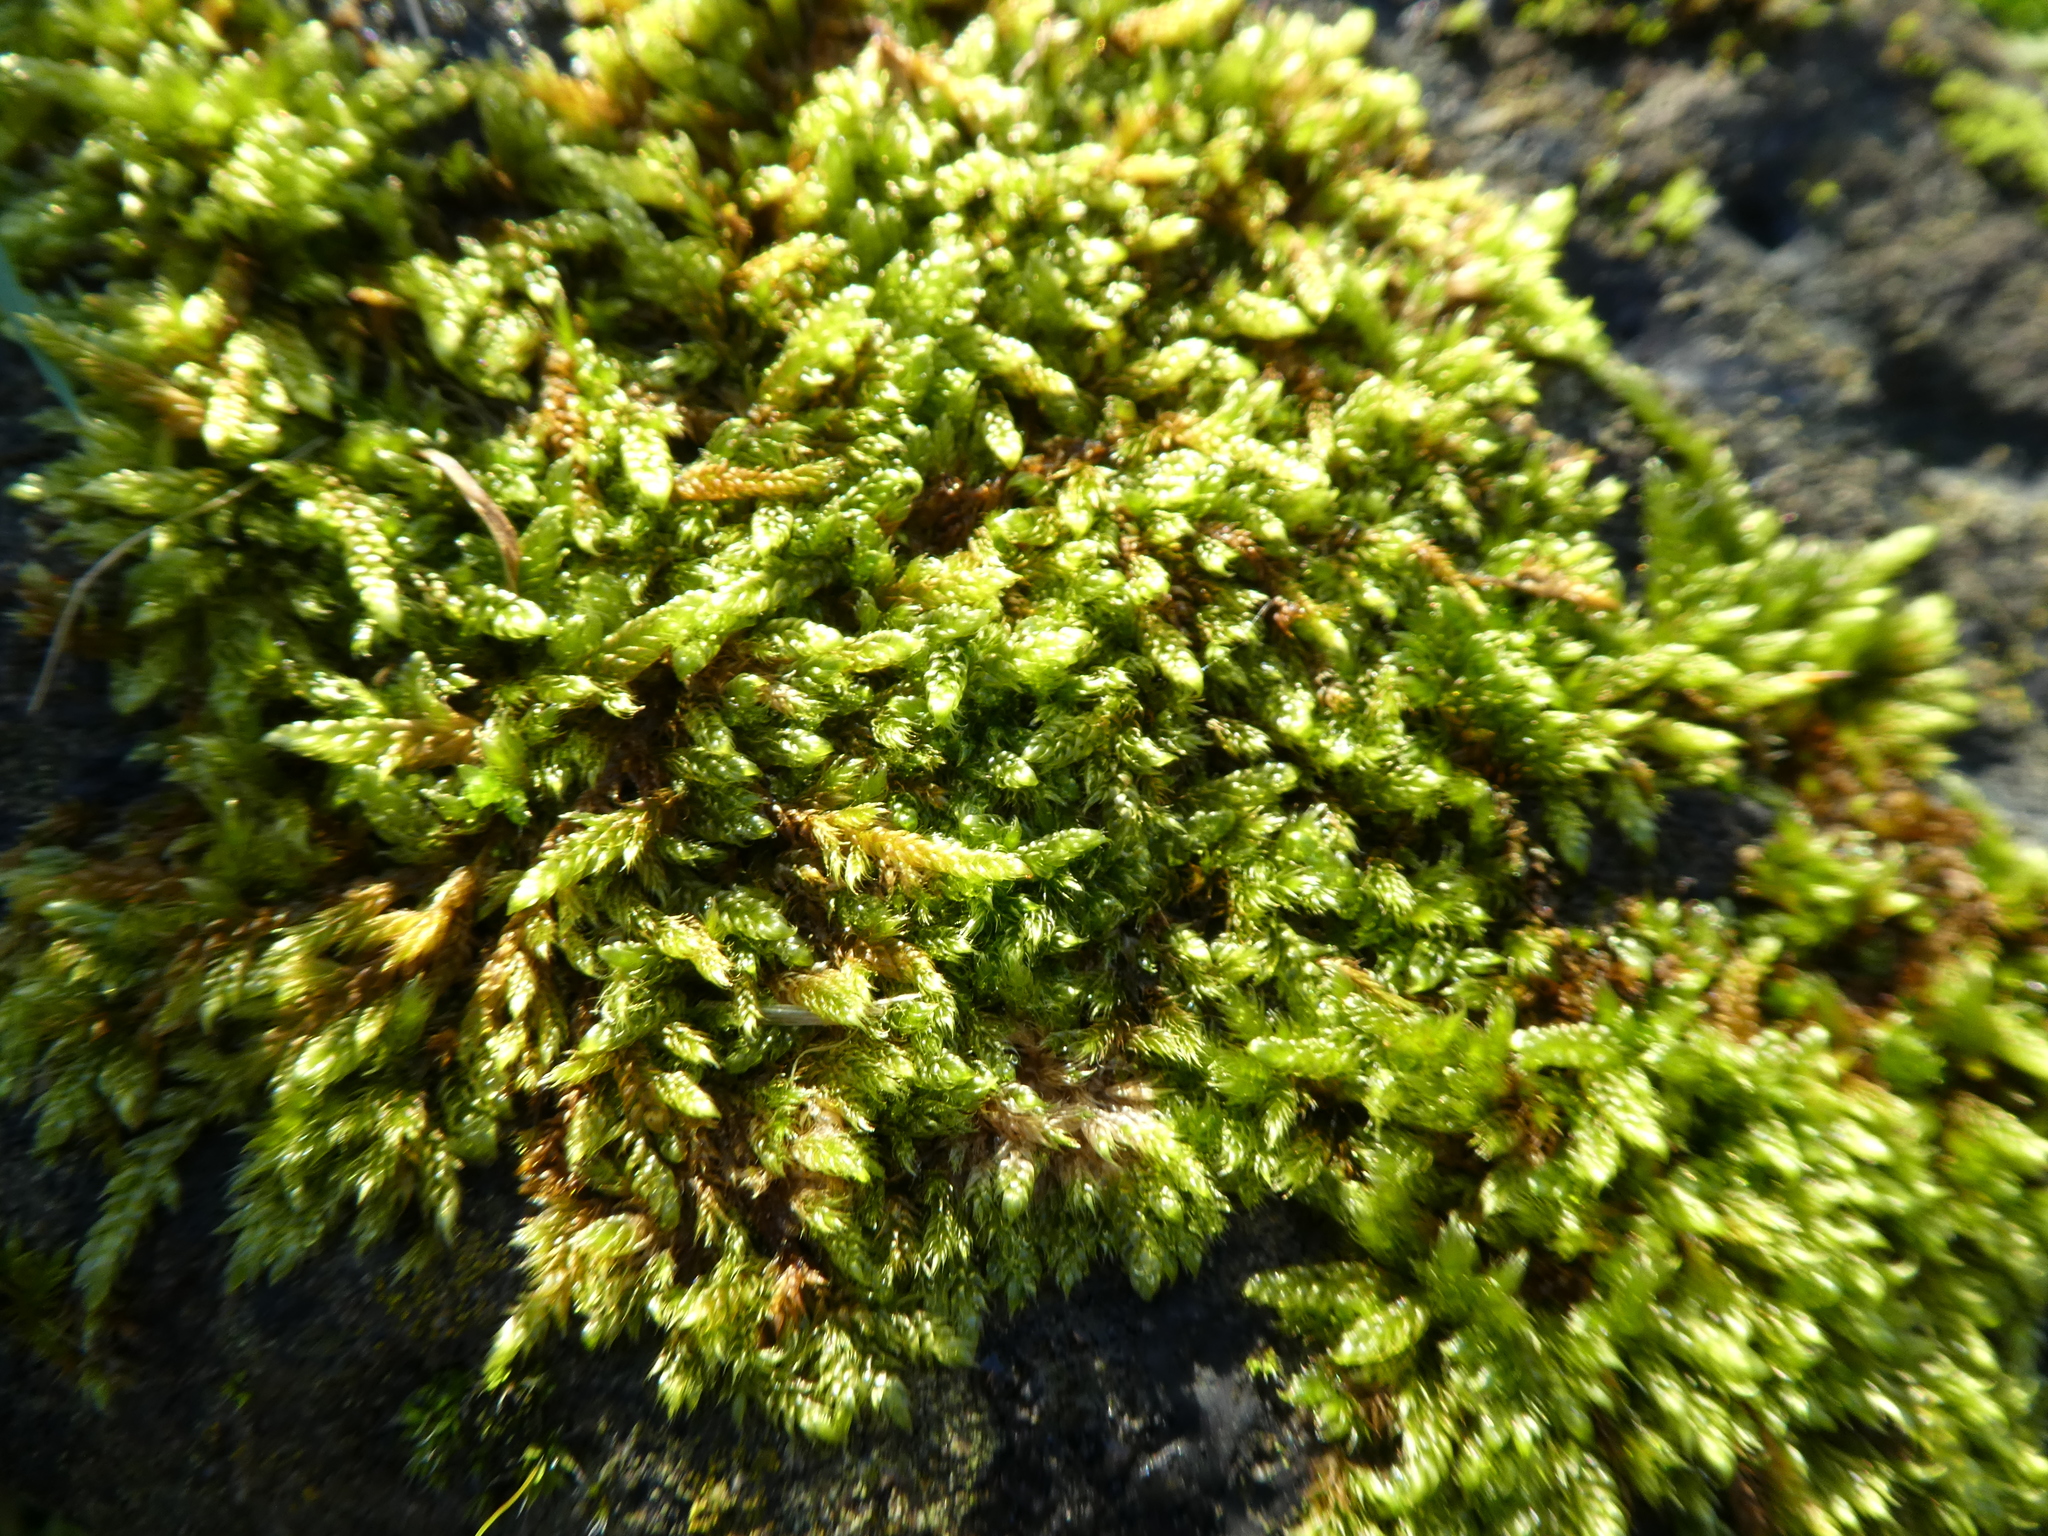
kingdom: Plantae
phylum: Bryophyta
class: Bryopsida
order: Hypnales
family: Hypnaceae
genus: Hypnum
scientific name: Hypnum cupressiforme
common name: Cypress-leaved plait-moss
